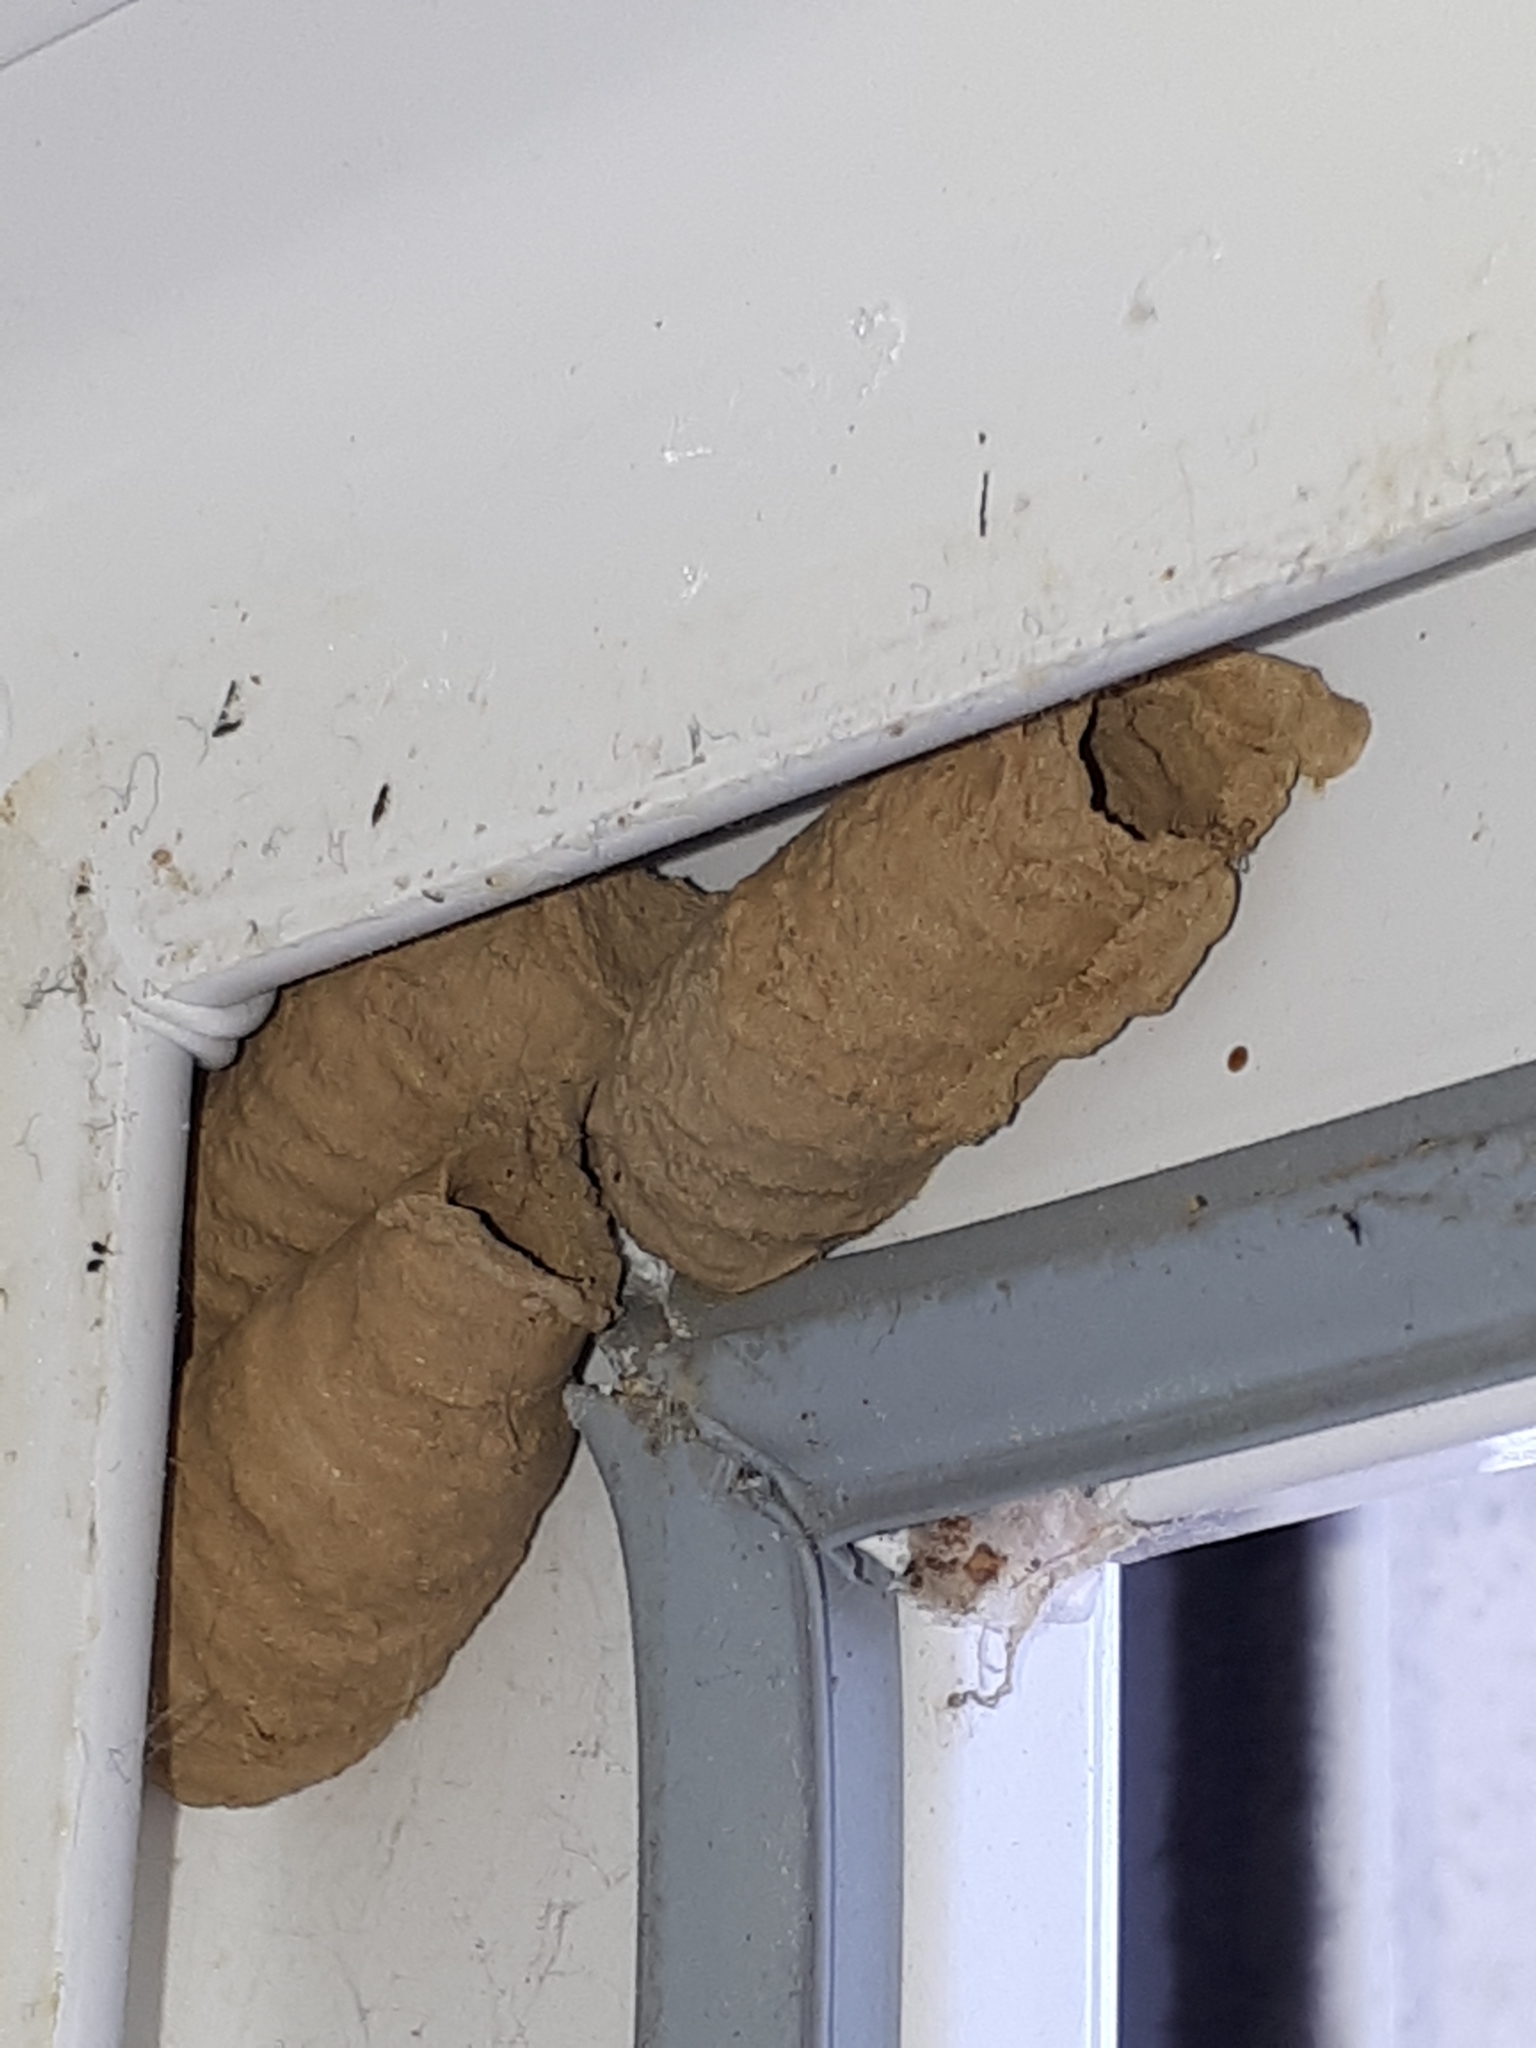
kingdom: Animalia
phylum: Arthropoda
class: Insecta
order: Hymenoptera
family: Sphecidae
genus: Sceliphron
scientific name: Sceliphron curvatum
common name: Pèlopèe
